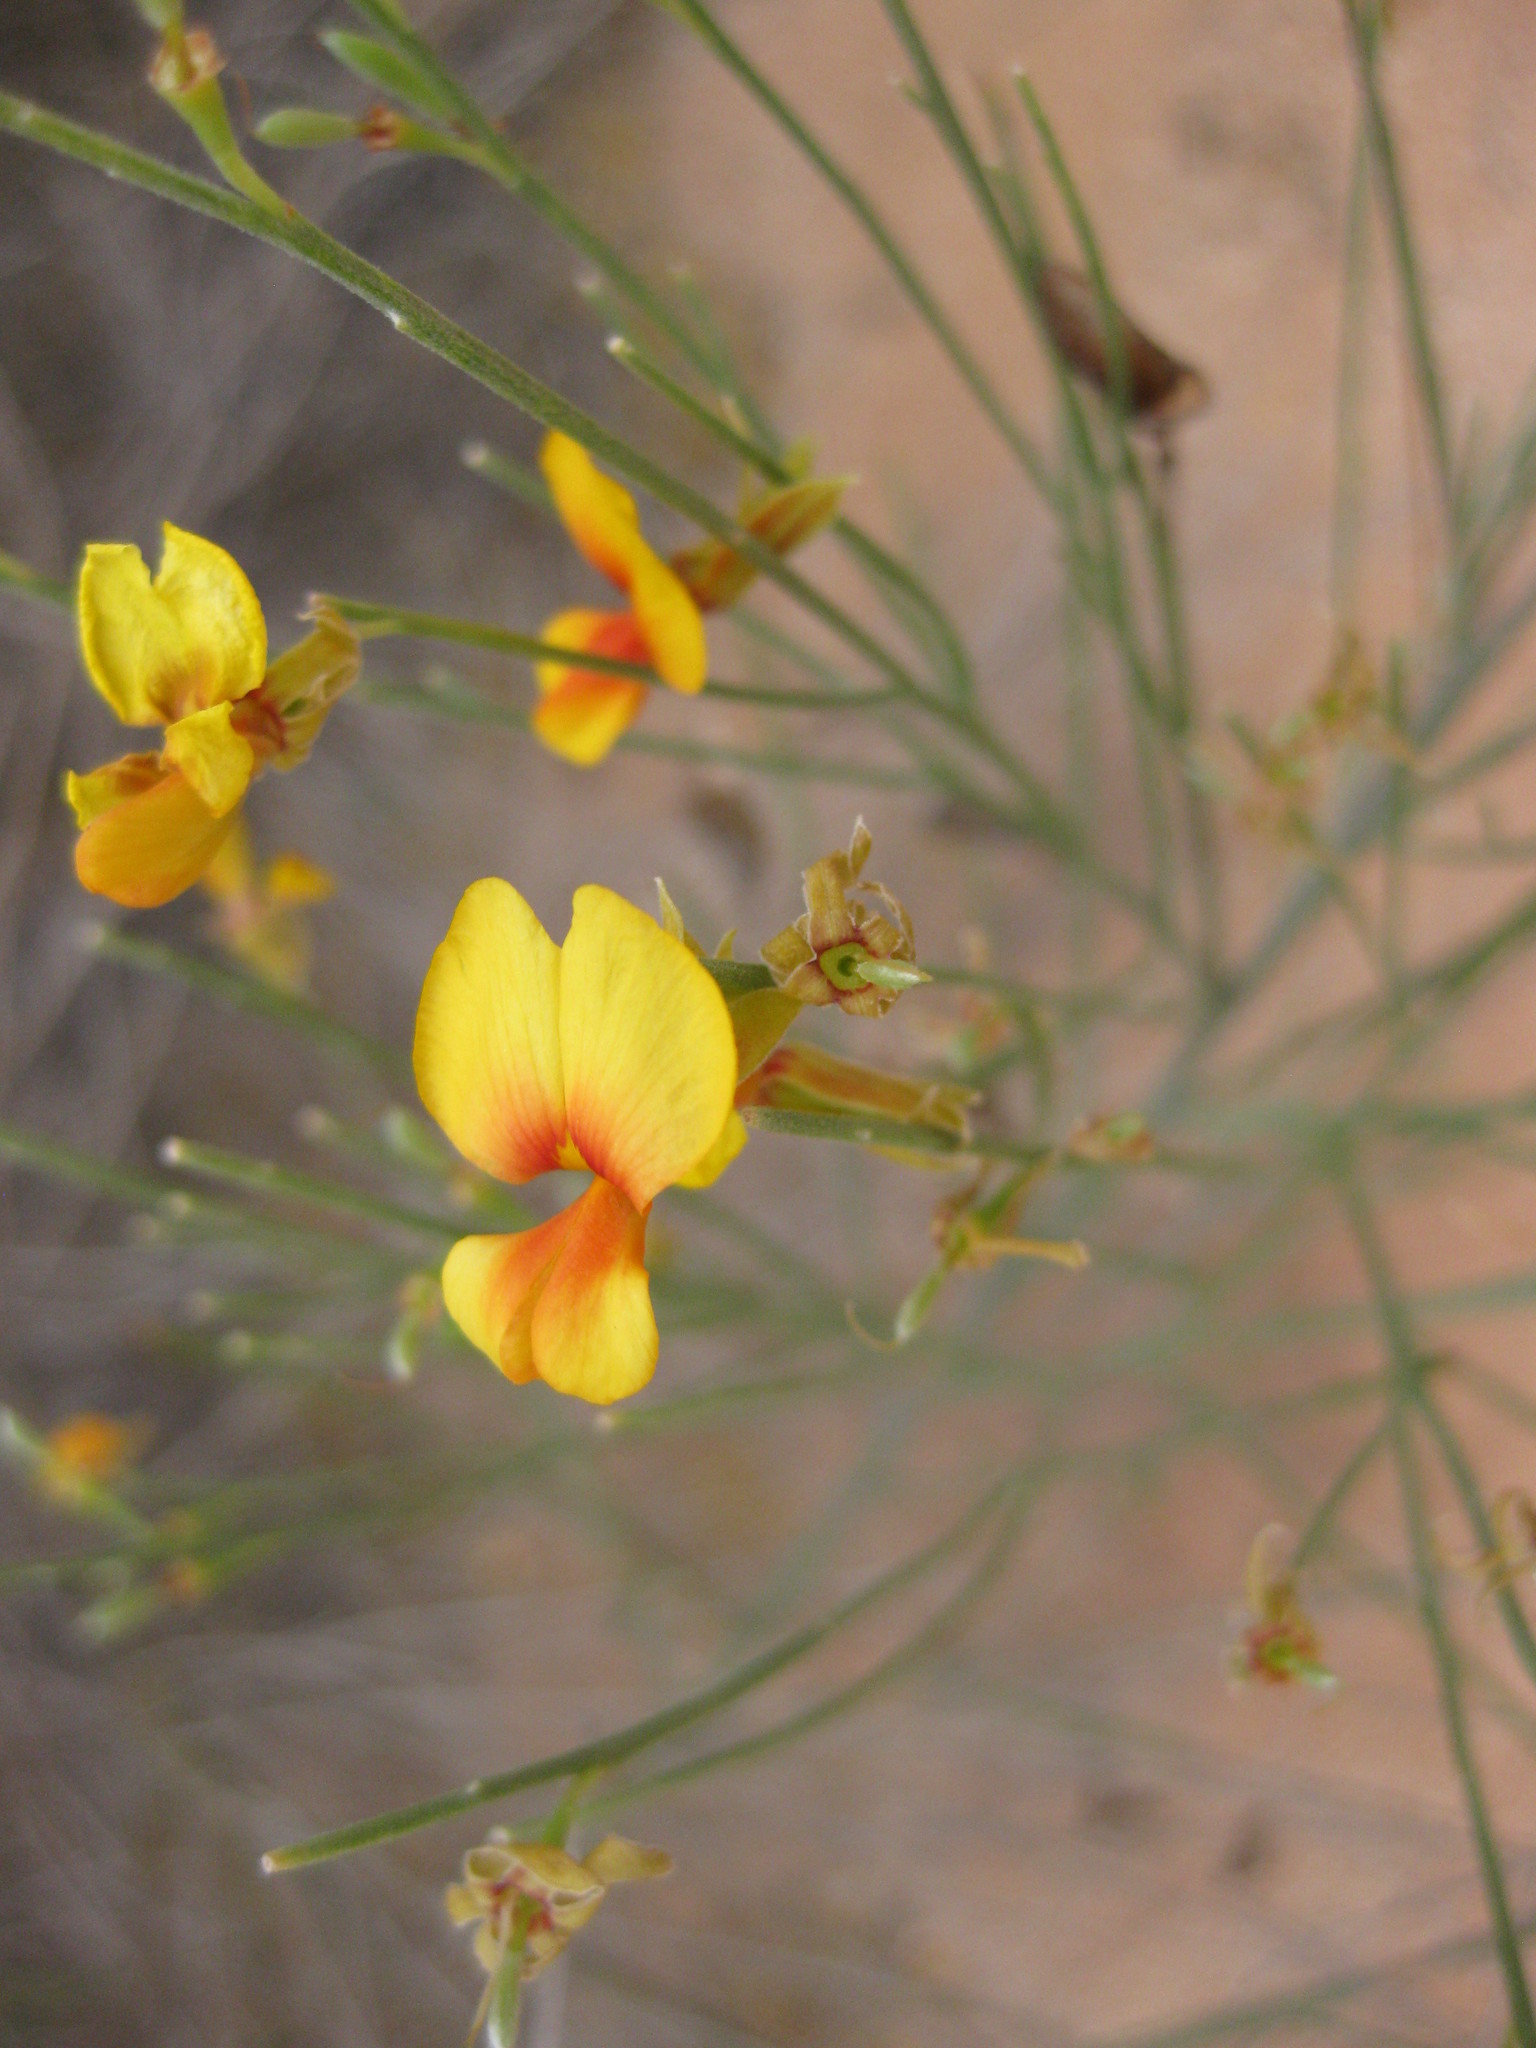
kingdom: Plantae
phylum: Tracheophyta
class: Magnoliopsida
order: Fabales
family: Fabaceae
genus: Jacksonia
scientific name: Jacksonia sternbergiana
